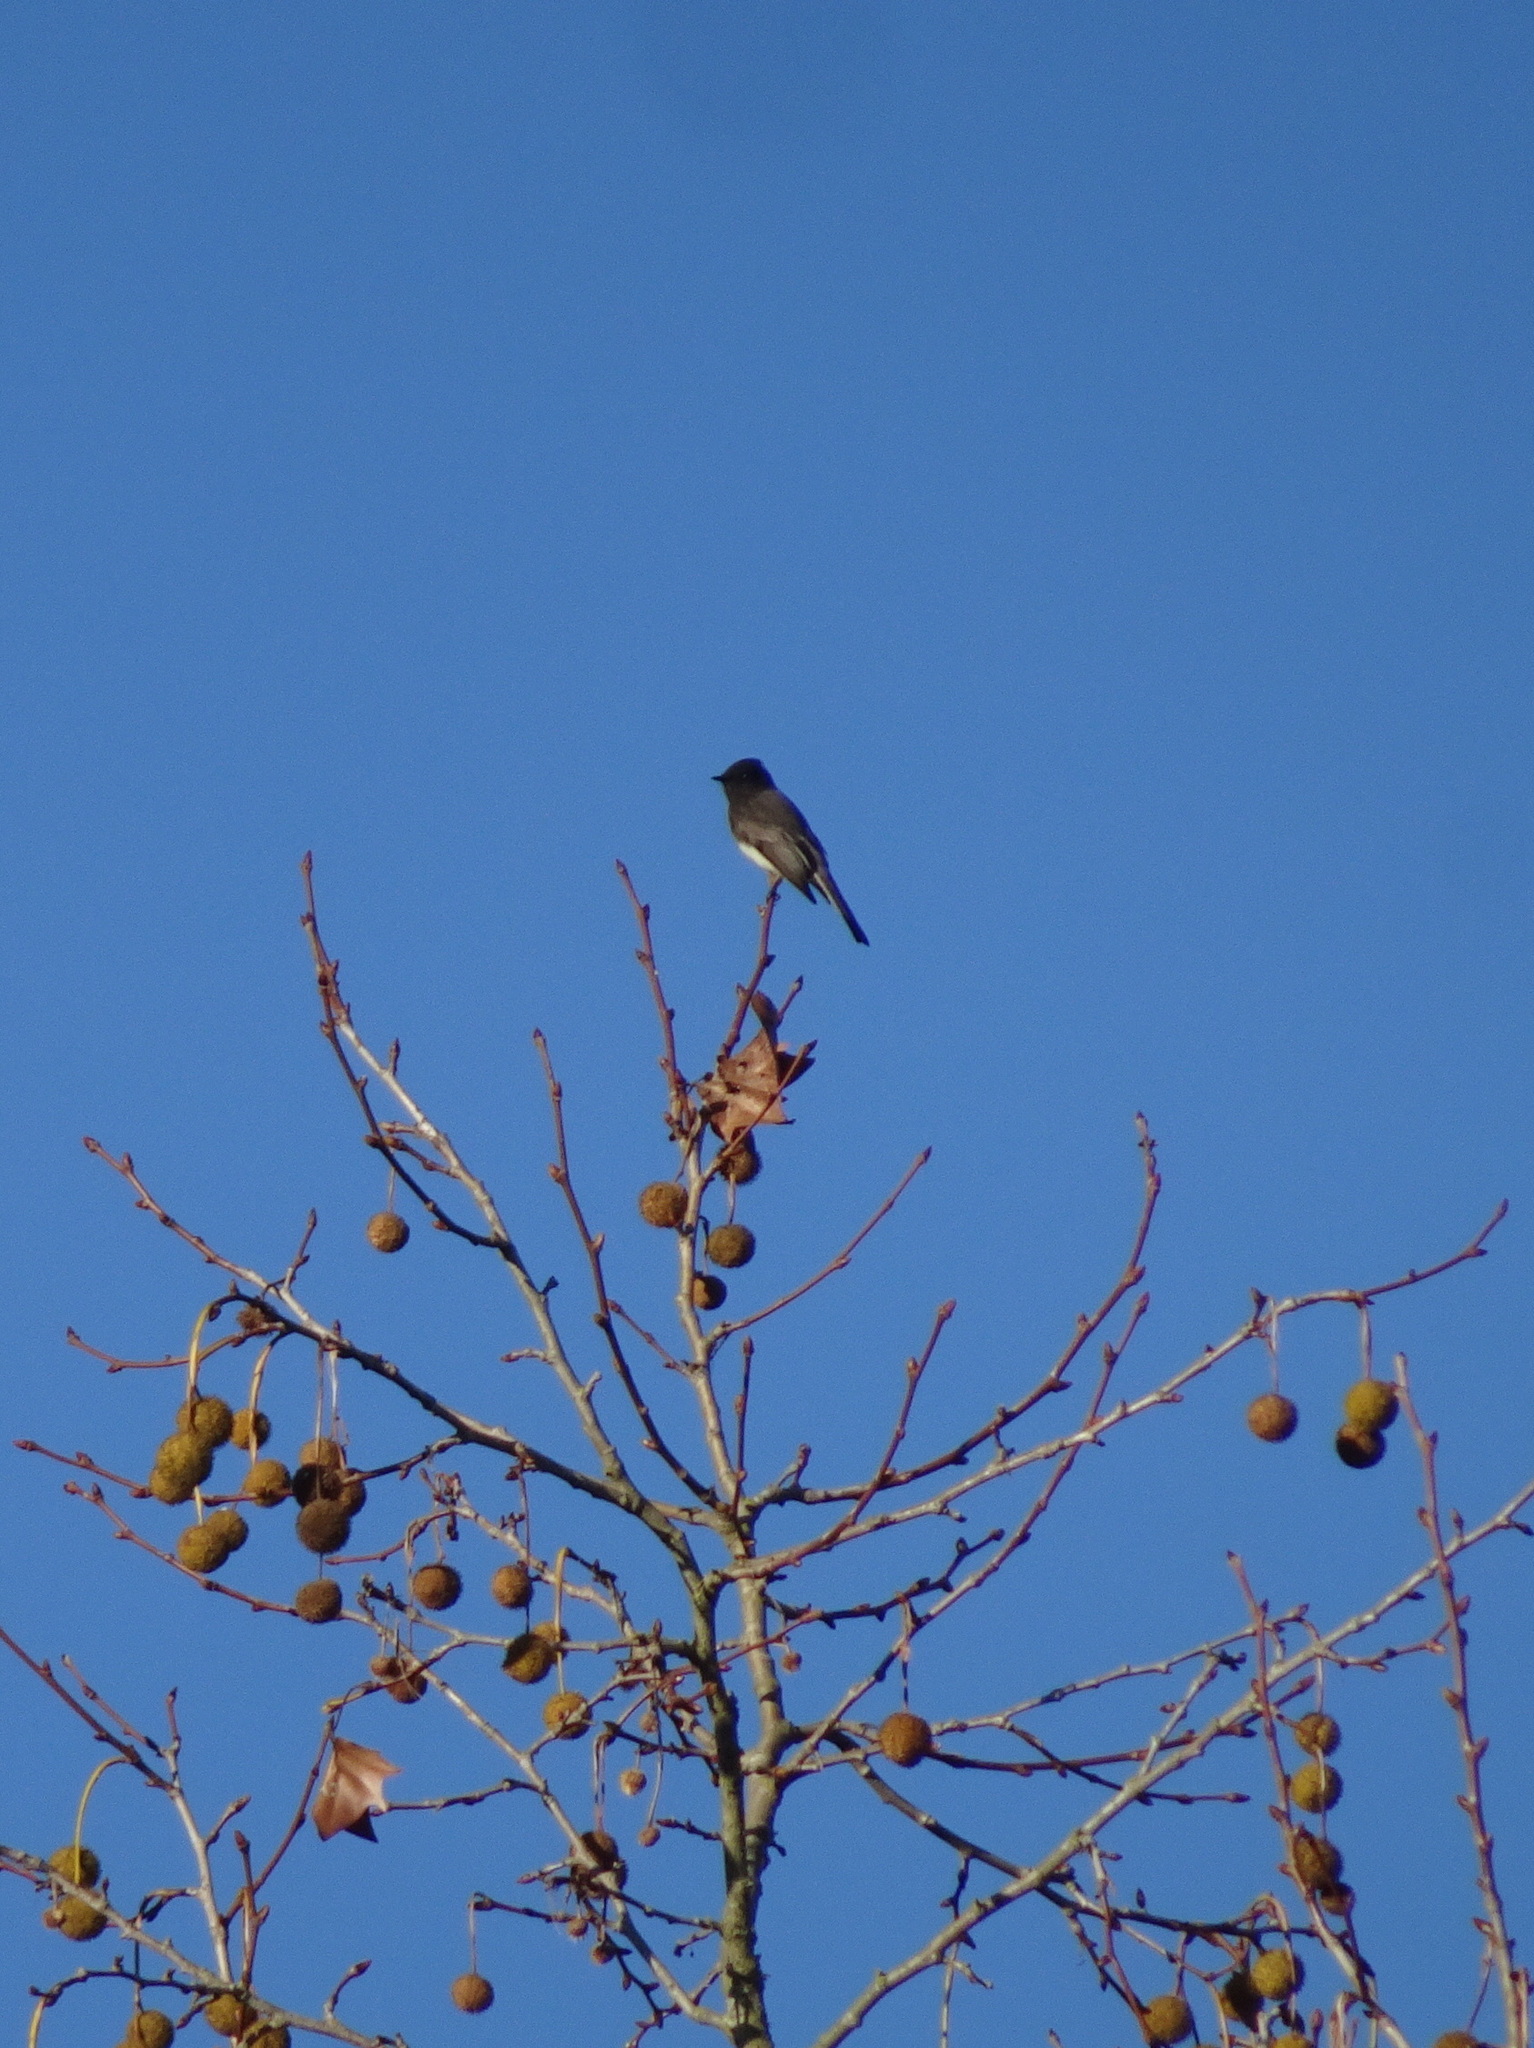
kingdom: Animalia
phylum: Chordata
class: Aves
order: Passeriformes
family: Tyrannidae
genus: Sayornis
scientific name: Sayornis nigricans
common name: Black phoebe
